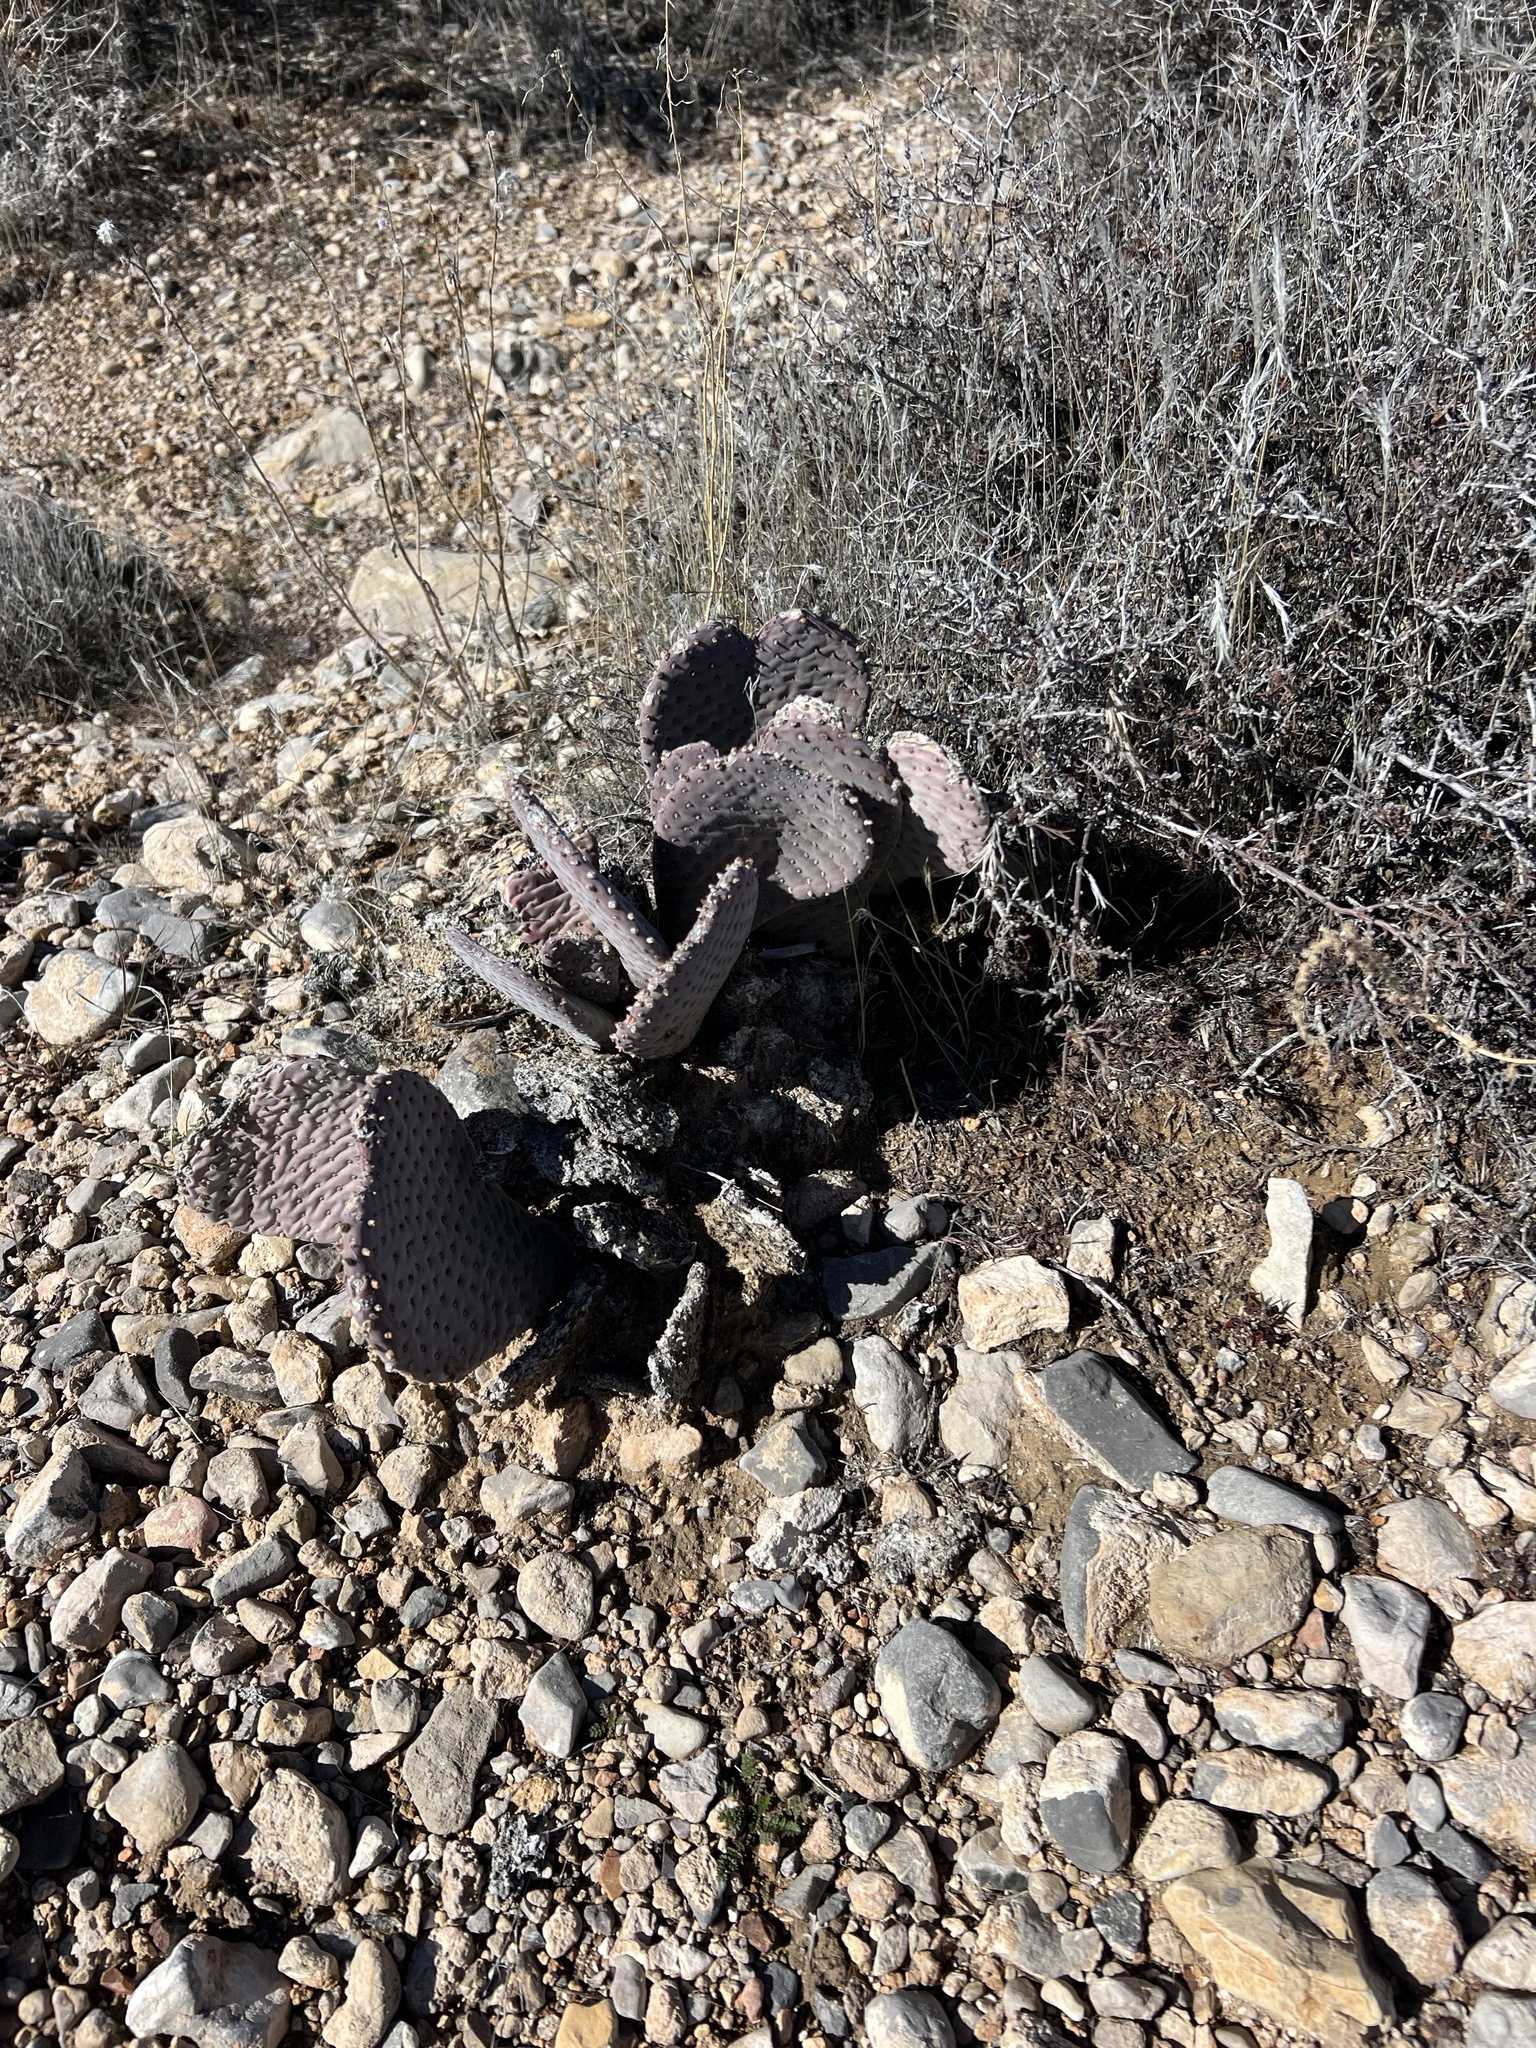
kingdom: Plantae
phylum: Tracheophyta
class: Magnoliopsida
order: Caryophyllales
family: Cactaceae
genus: Opuntia
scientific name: Opuntia basilaris
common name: Beavertail prickly-pear
